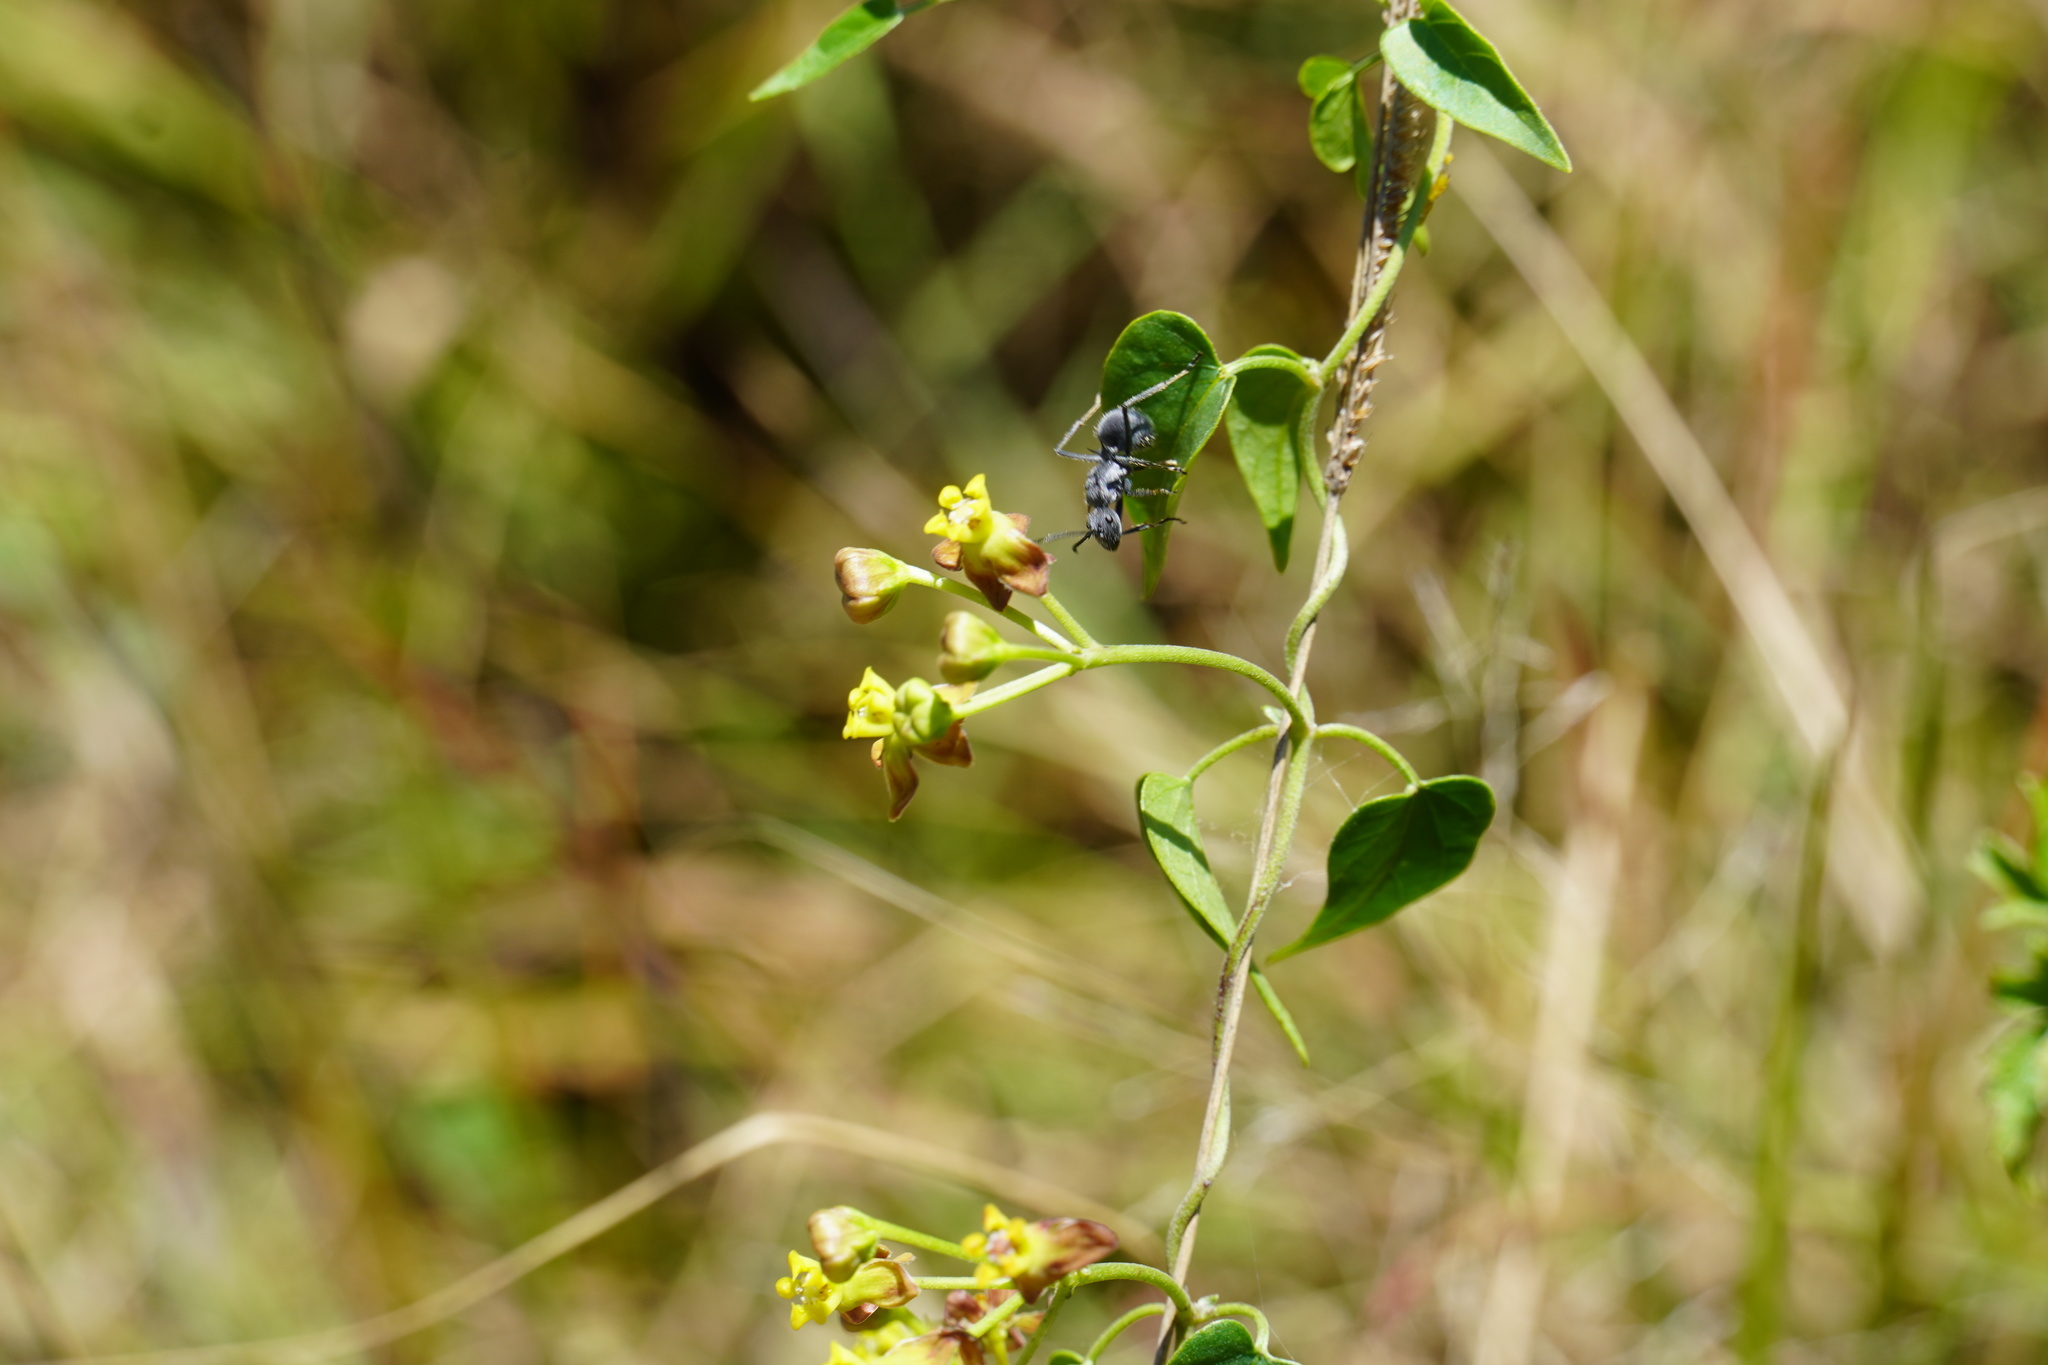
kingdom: Animalia
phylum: Arthropoda
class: Insecta
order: Hymenoptera
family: Formicidae
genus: Polyrhachis
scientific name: Polyrhachis schistacea
